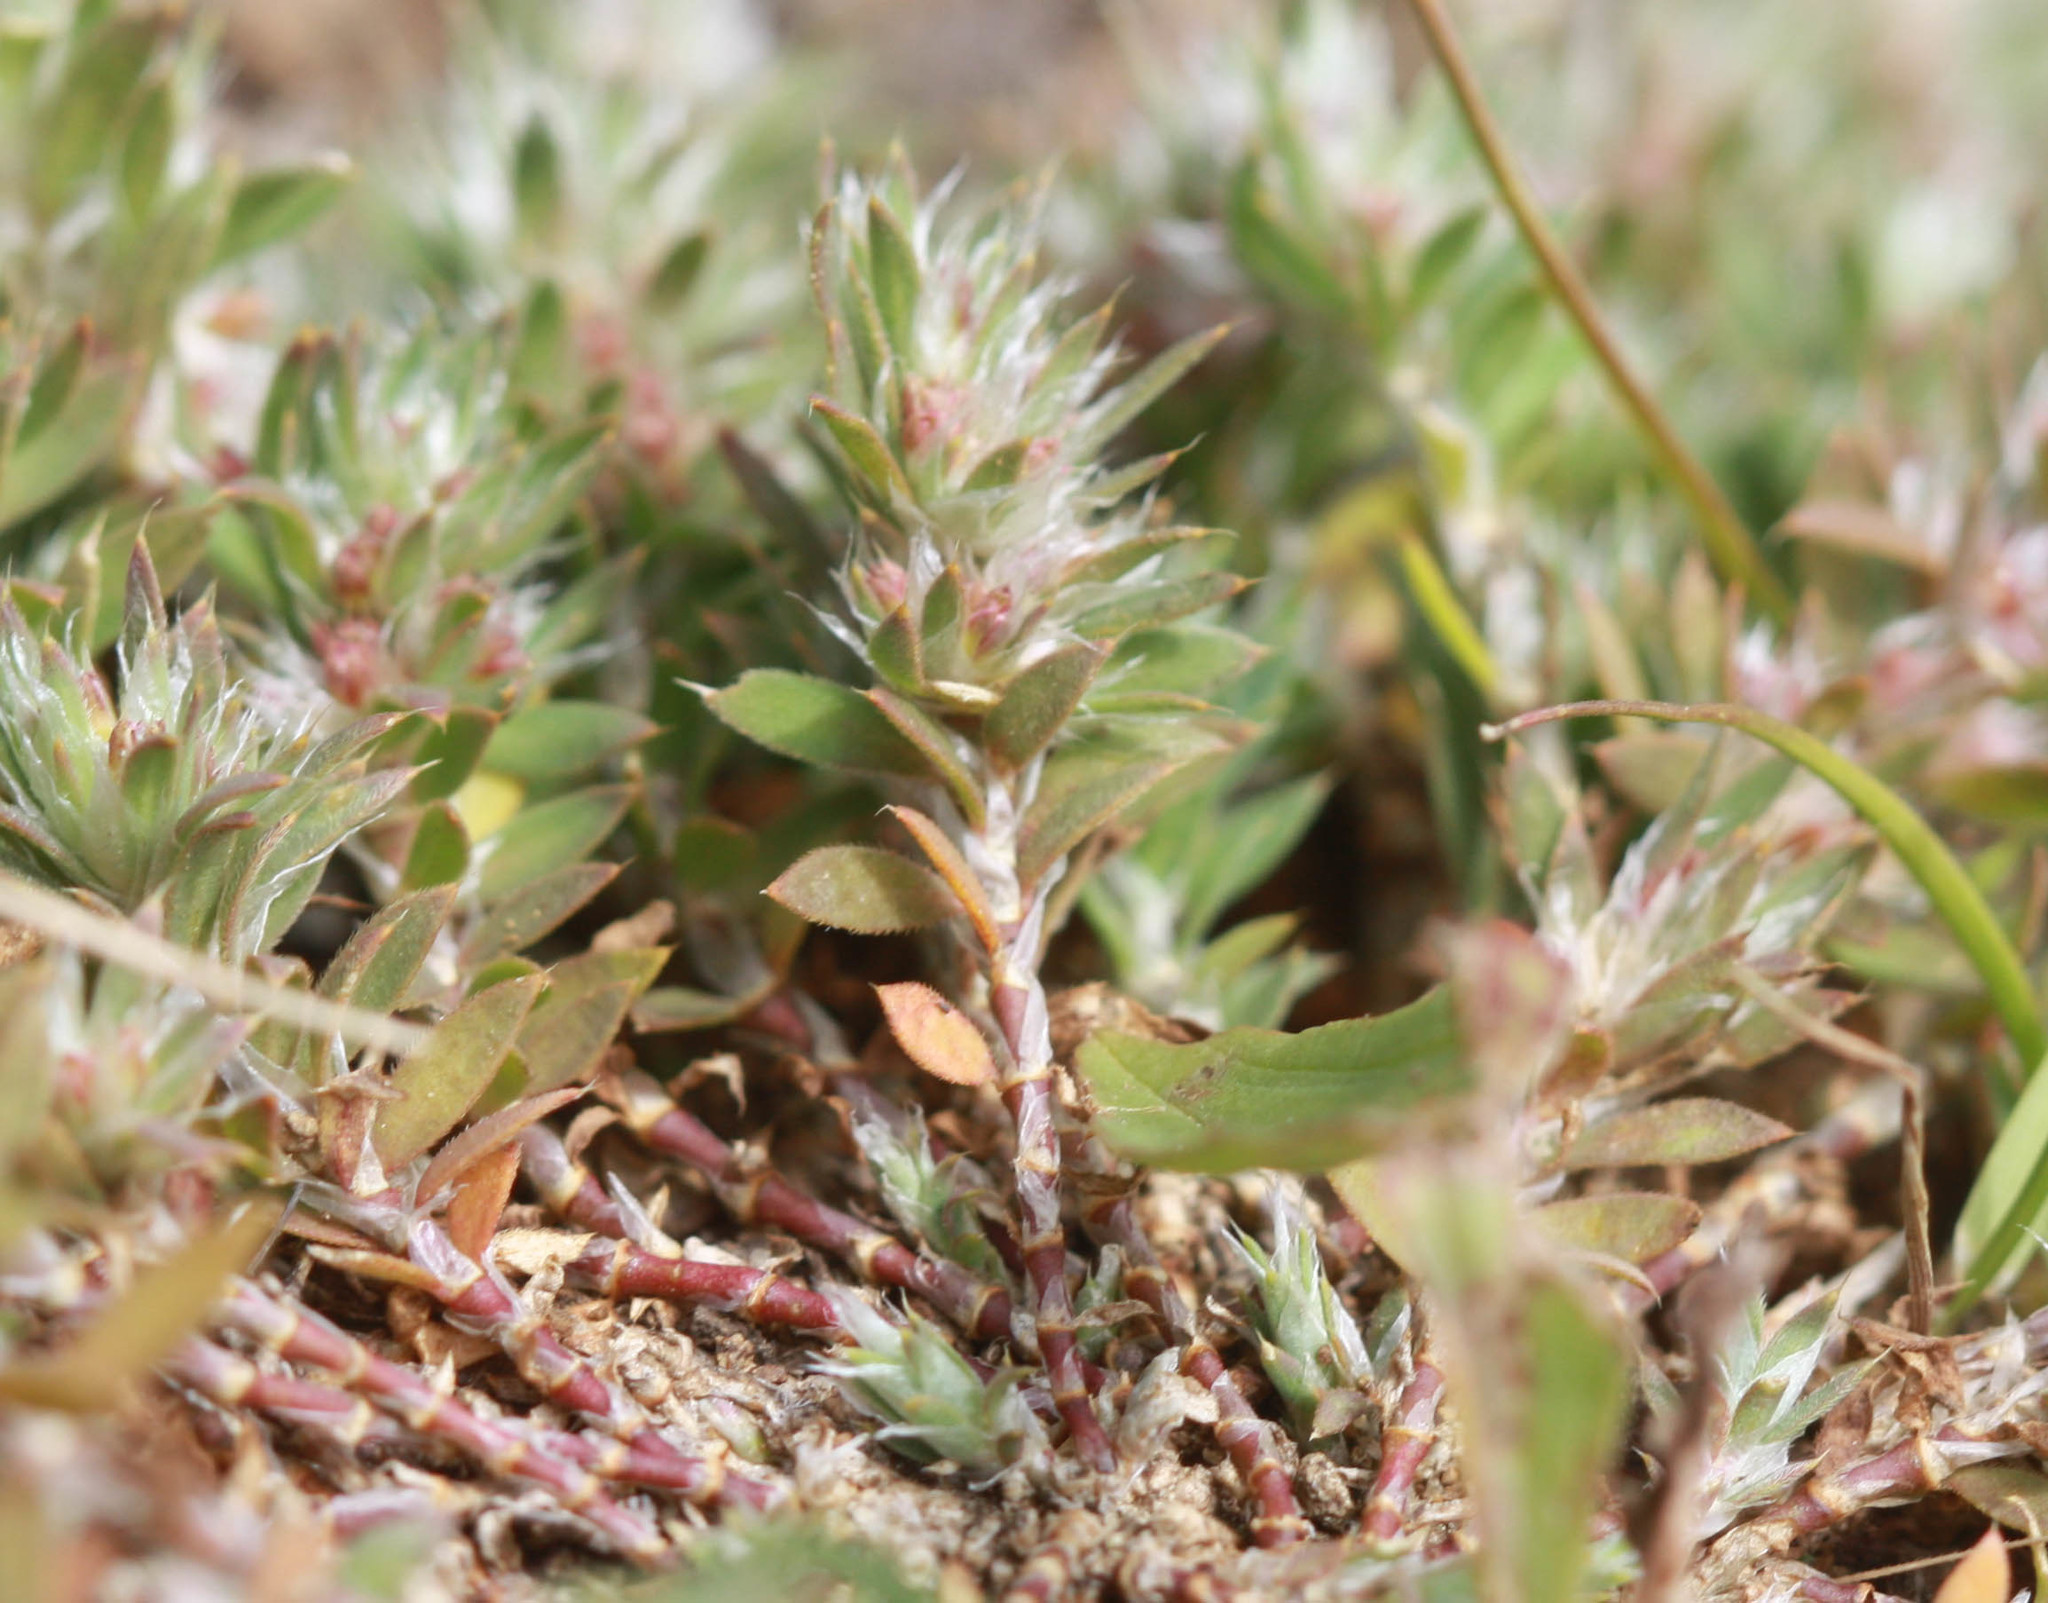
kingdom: Plantae
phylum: Tracheophyta
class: Magnoliopsida
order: Caryophyllales
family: Caryophyllaceae
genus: Paronychia
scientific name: Paronychia franciscana
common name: San francisco nailwort
